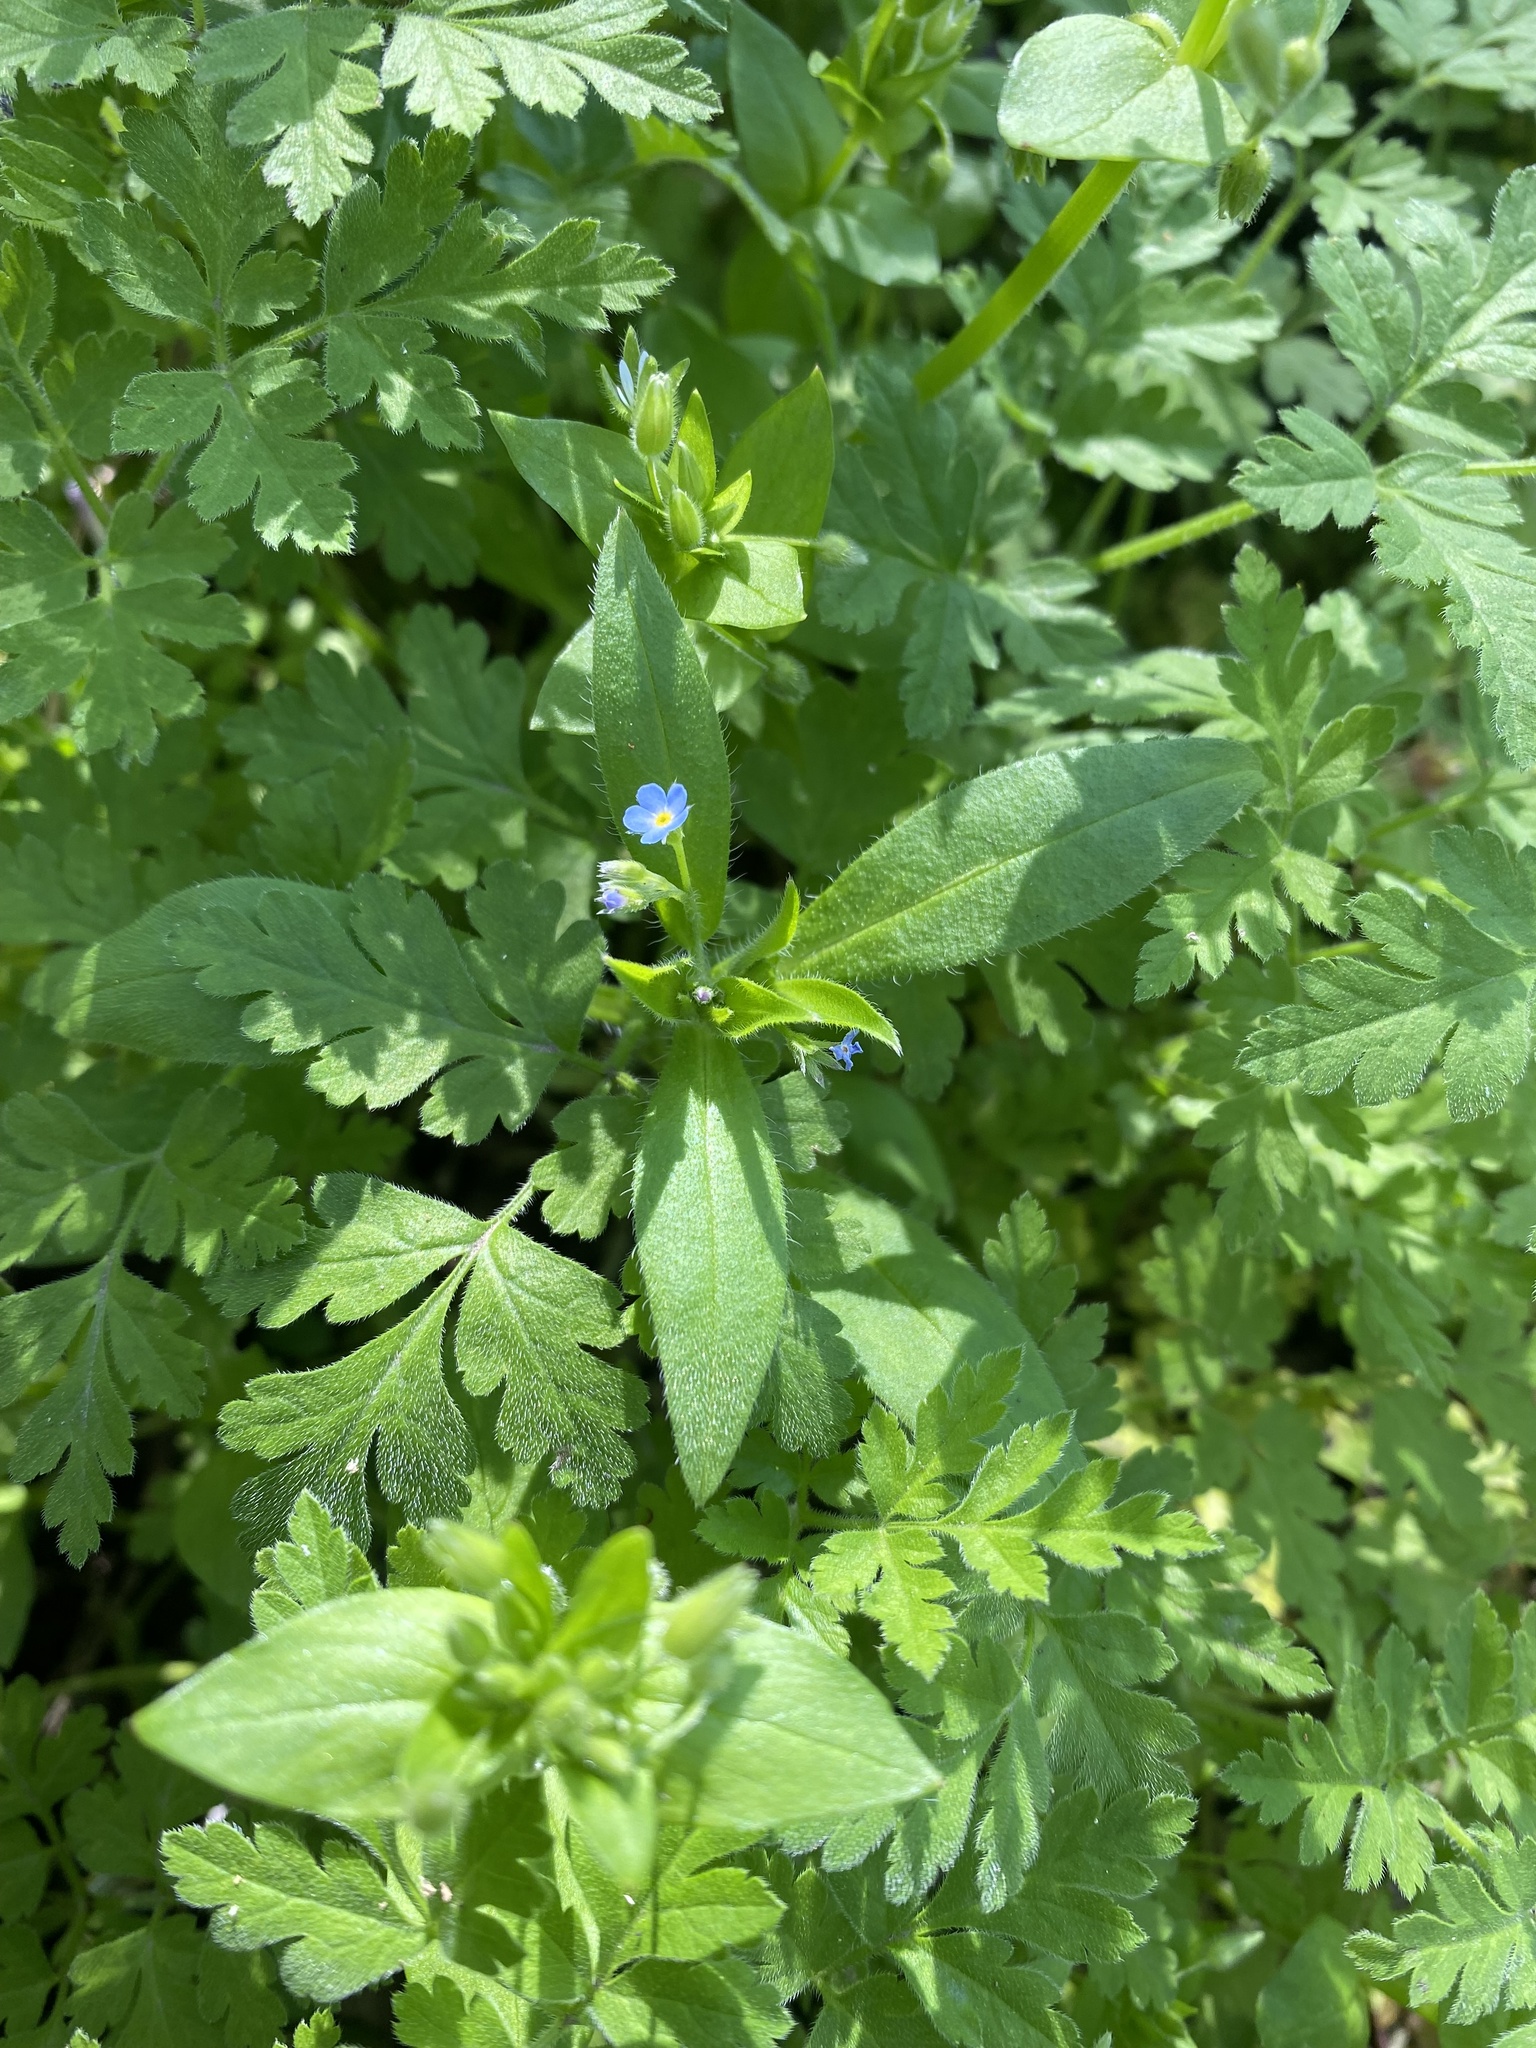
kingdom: Plantae
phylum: Tracheophyta
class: Magnoliopsida
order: Boraginales
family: Boraginaceae
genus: Myosotis
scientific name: Myosotis sparsiflora
